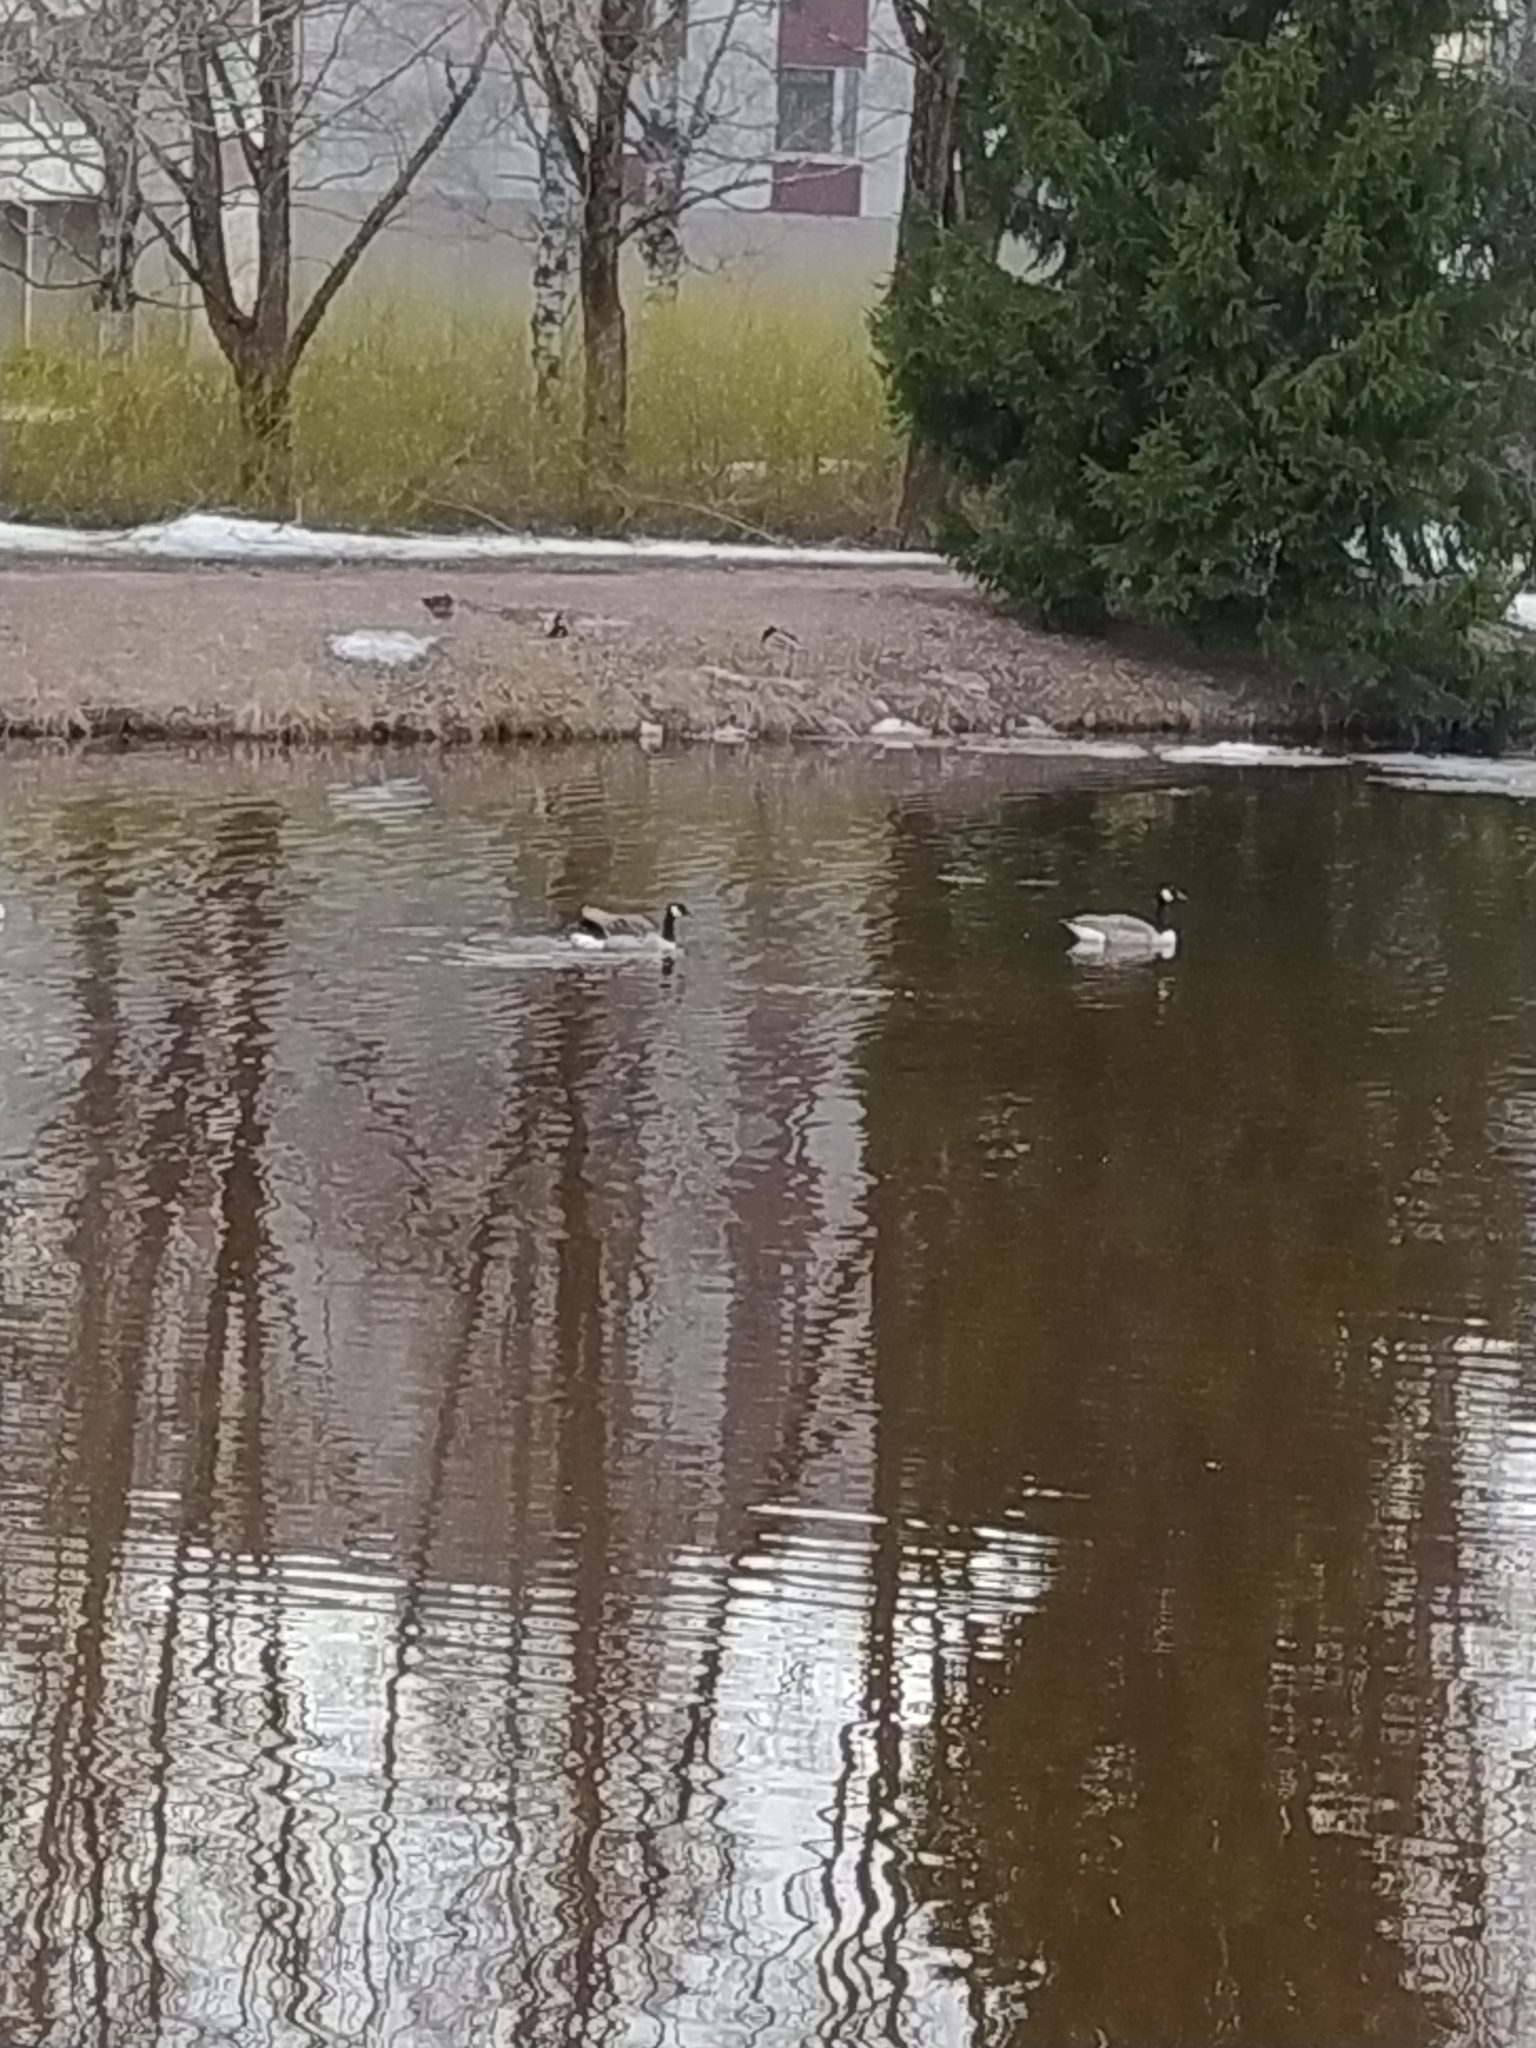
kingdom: Animalia
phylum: Chordata
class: Aves
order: Anseriformes
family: Anatidae
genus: Branta
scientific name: Branta canadensis
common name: Canada goose
